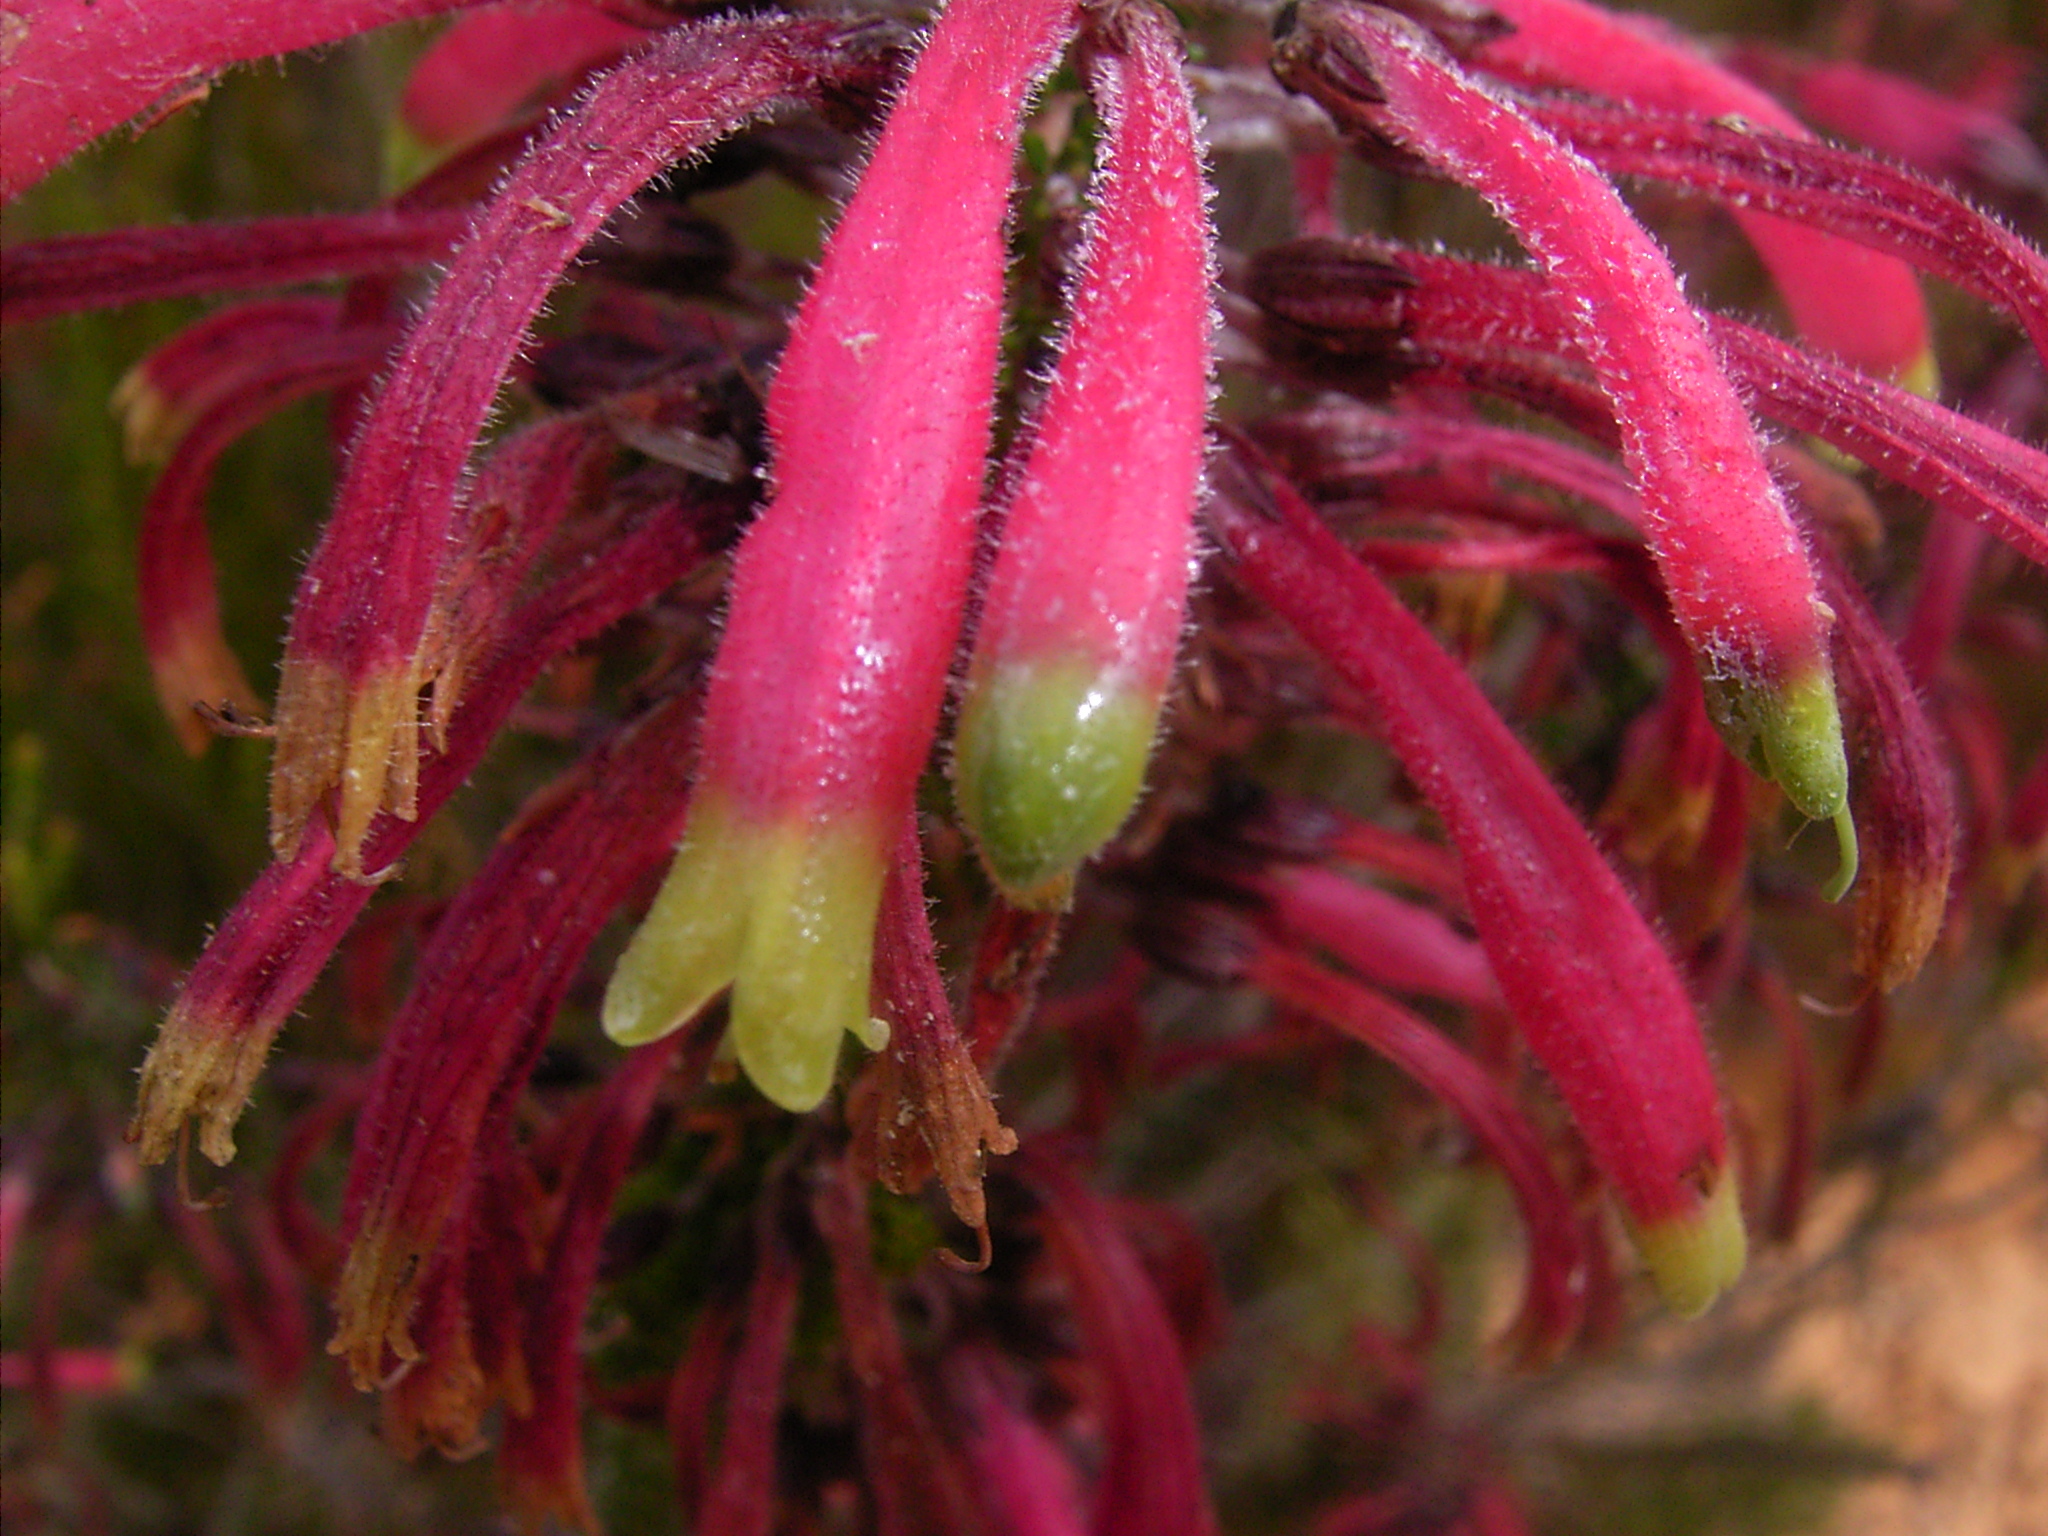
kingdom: Plantae
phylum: Tracheophyta
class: Magnoliopsida
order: Ericales
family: Ericaceae
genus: Erica
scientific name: Erica densifolia
